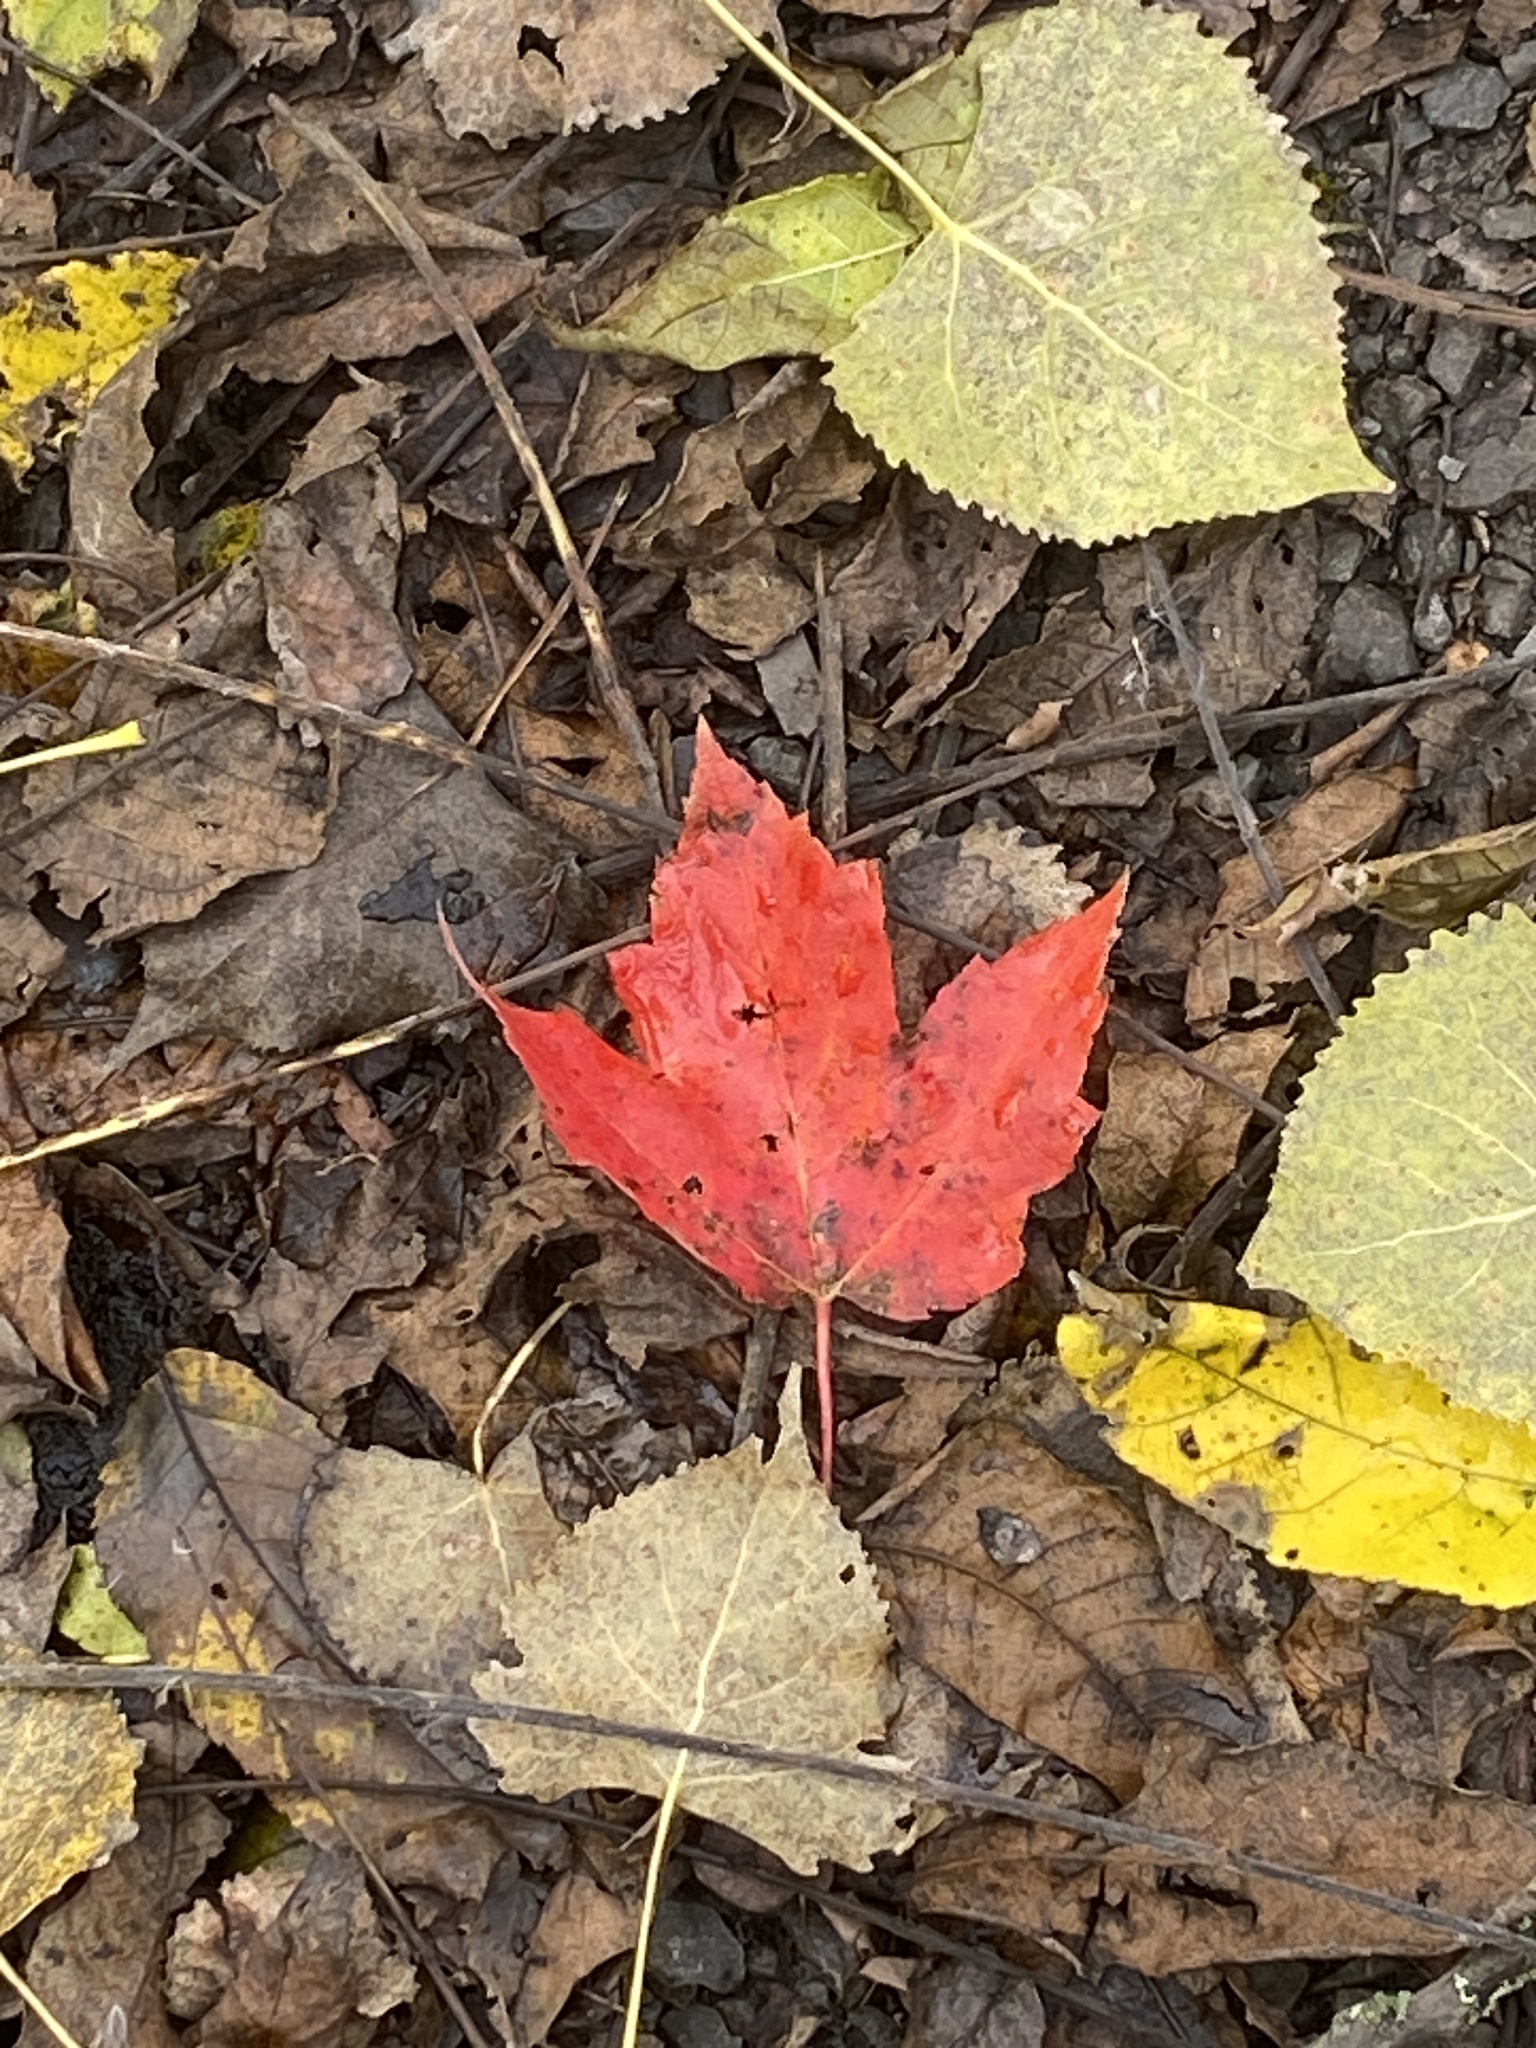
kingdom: Plantae
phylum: Tracheophyta
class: Magnoliopsida
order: Sapindales
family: Sapindaceae
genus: Acer
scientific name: Acer rubrum
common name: Red maple
